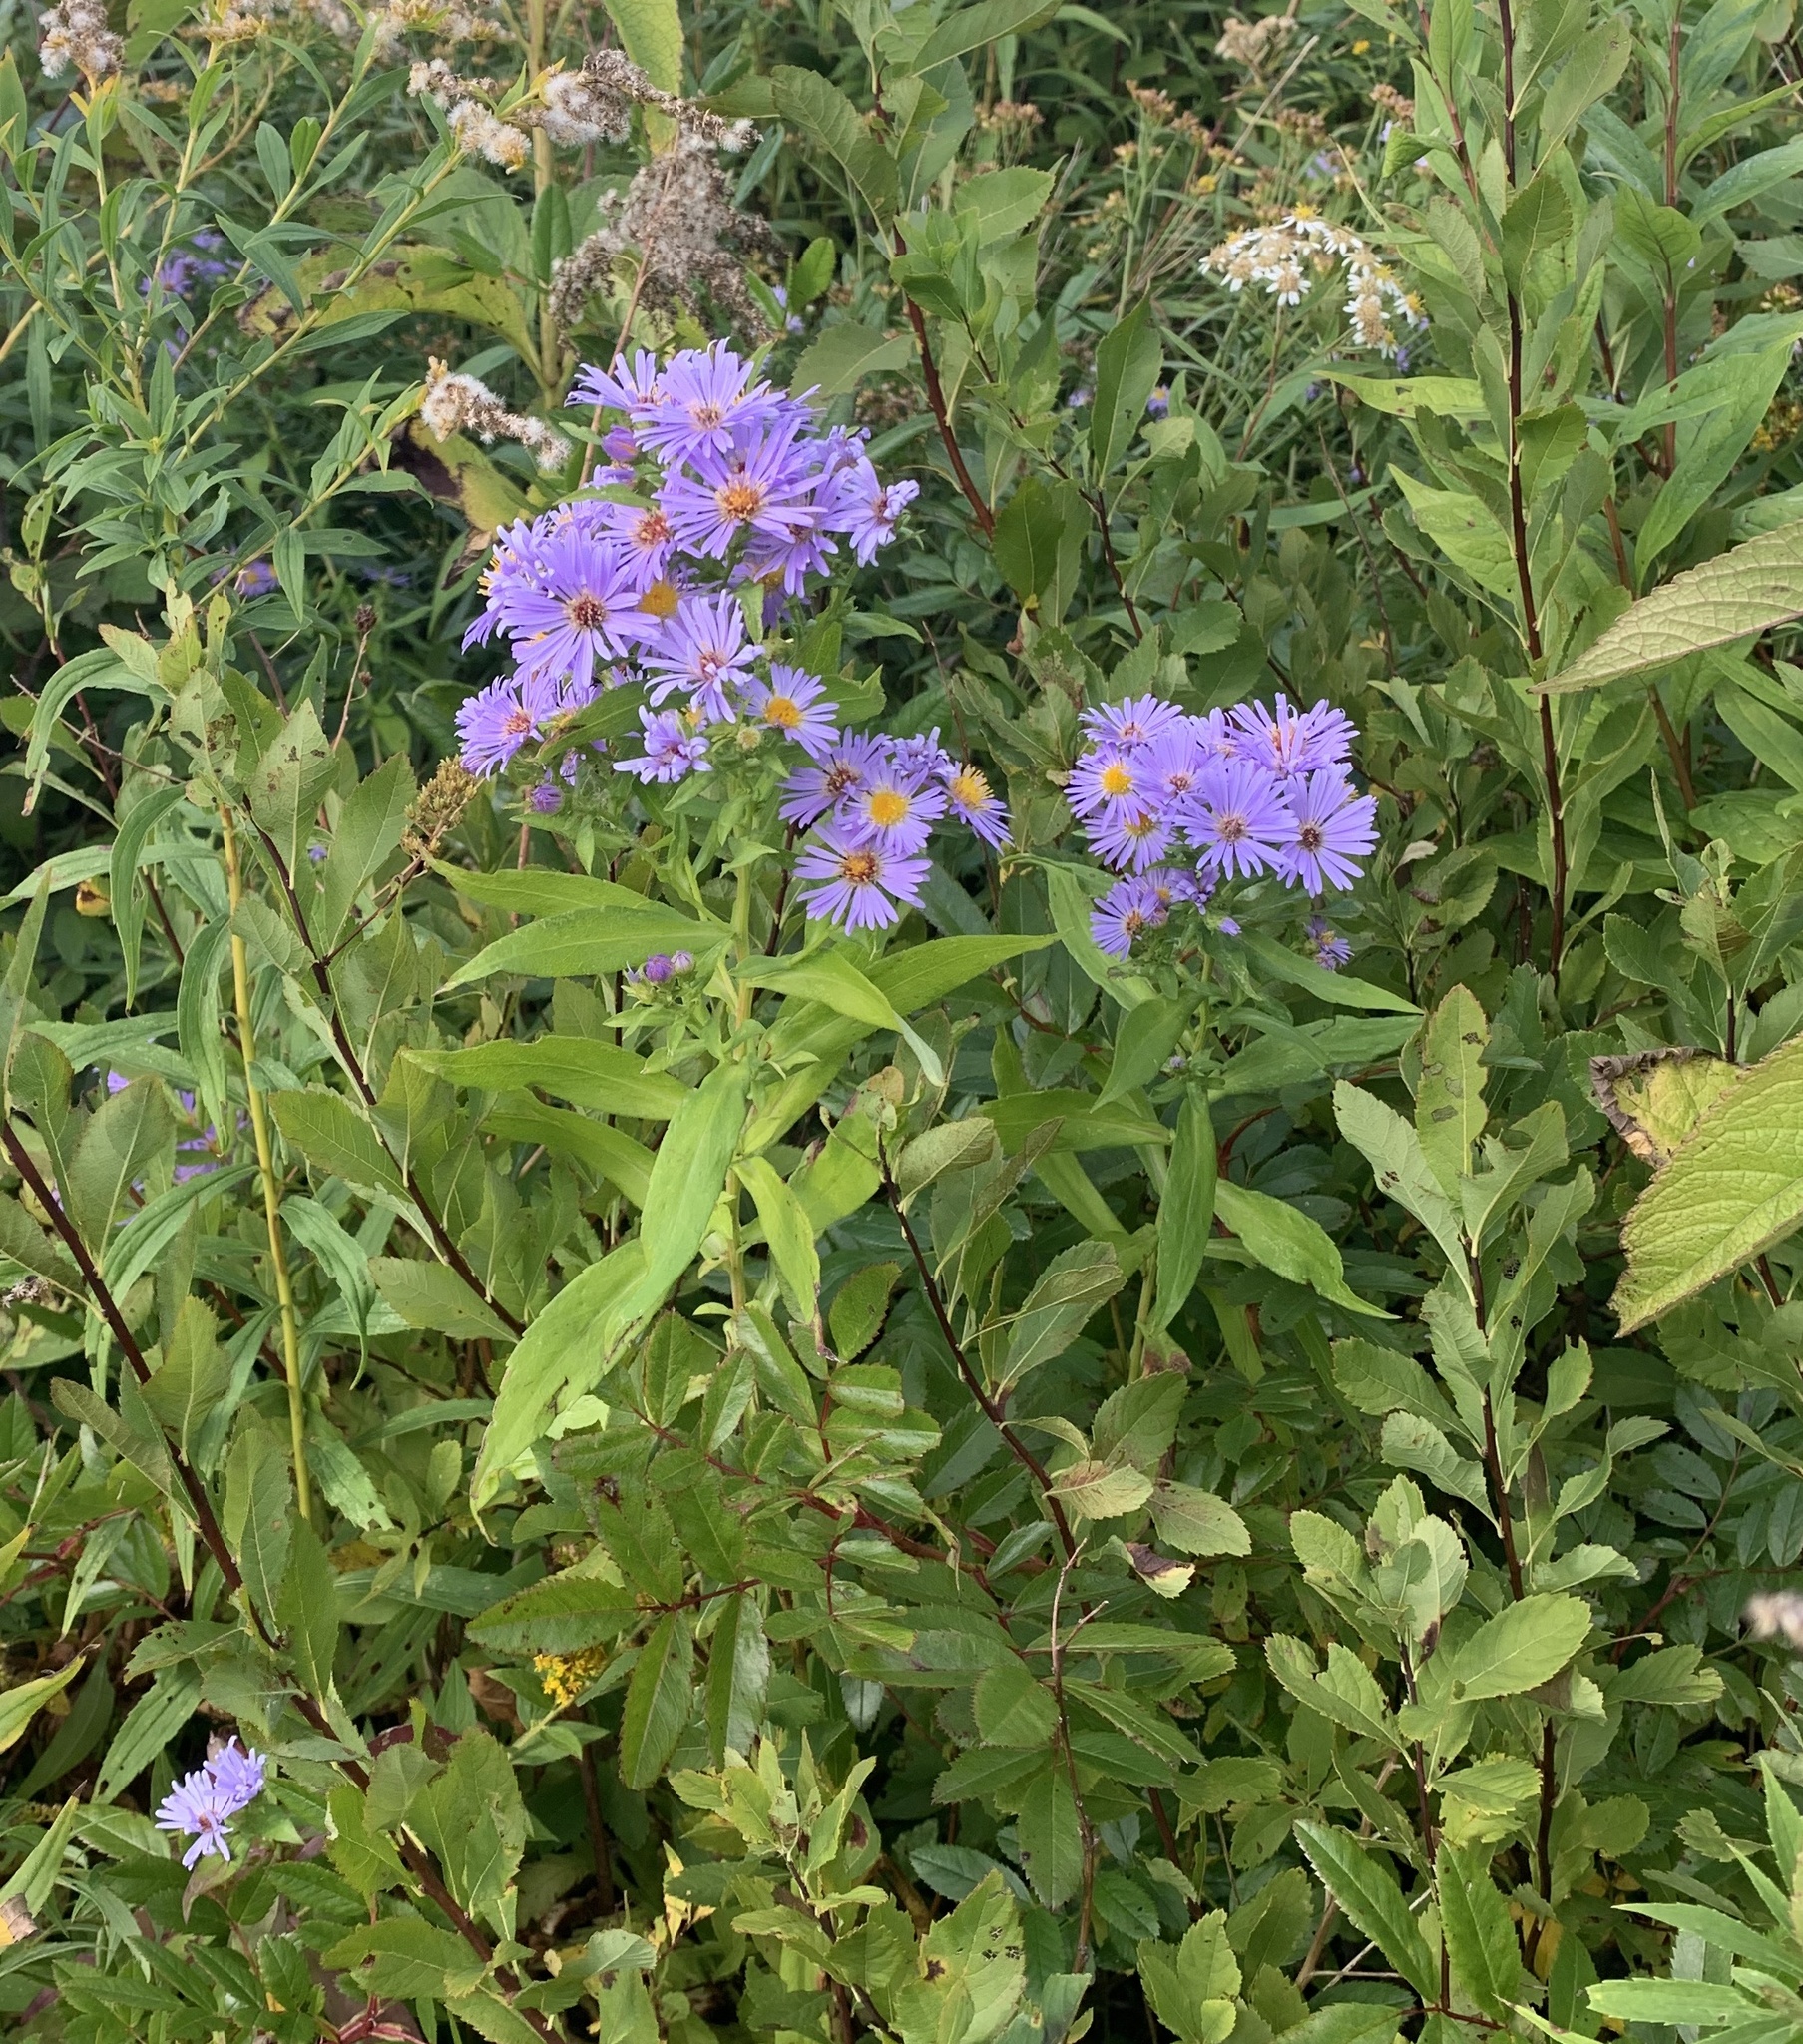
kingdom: Plantae
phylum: Tracheophyta
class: Magnoliopsida
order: Asterales
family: Asteraceae
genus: Symphyotrichum
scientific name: Symphyotrichum novi-belgii
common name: Michaelmas daisy
